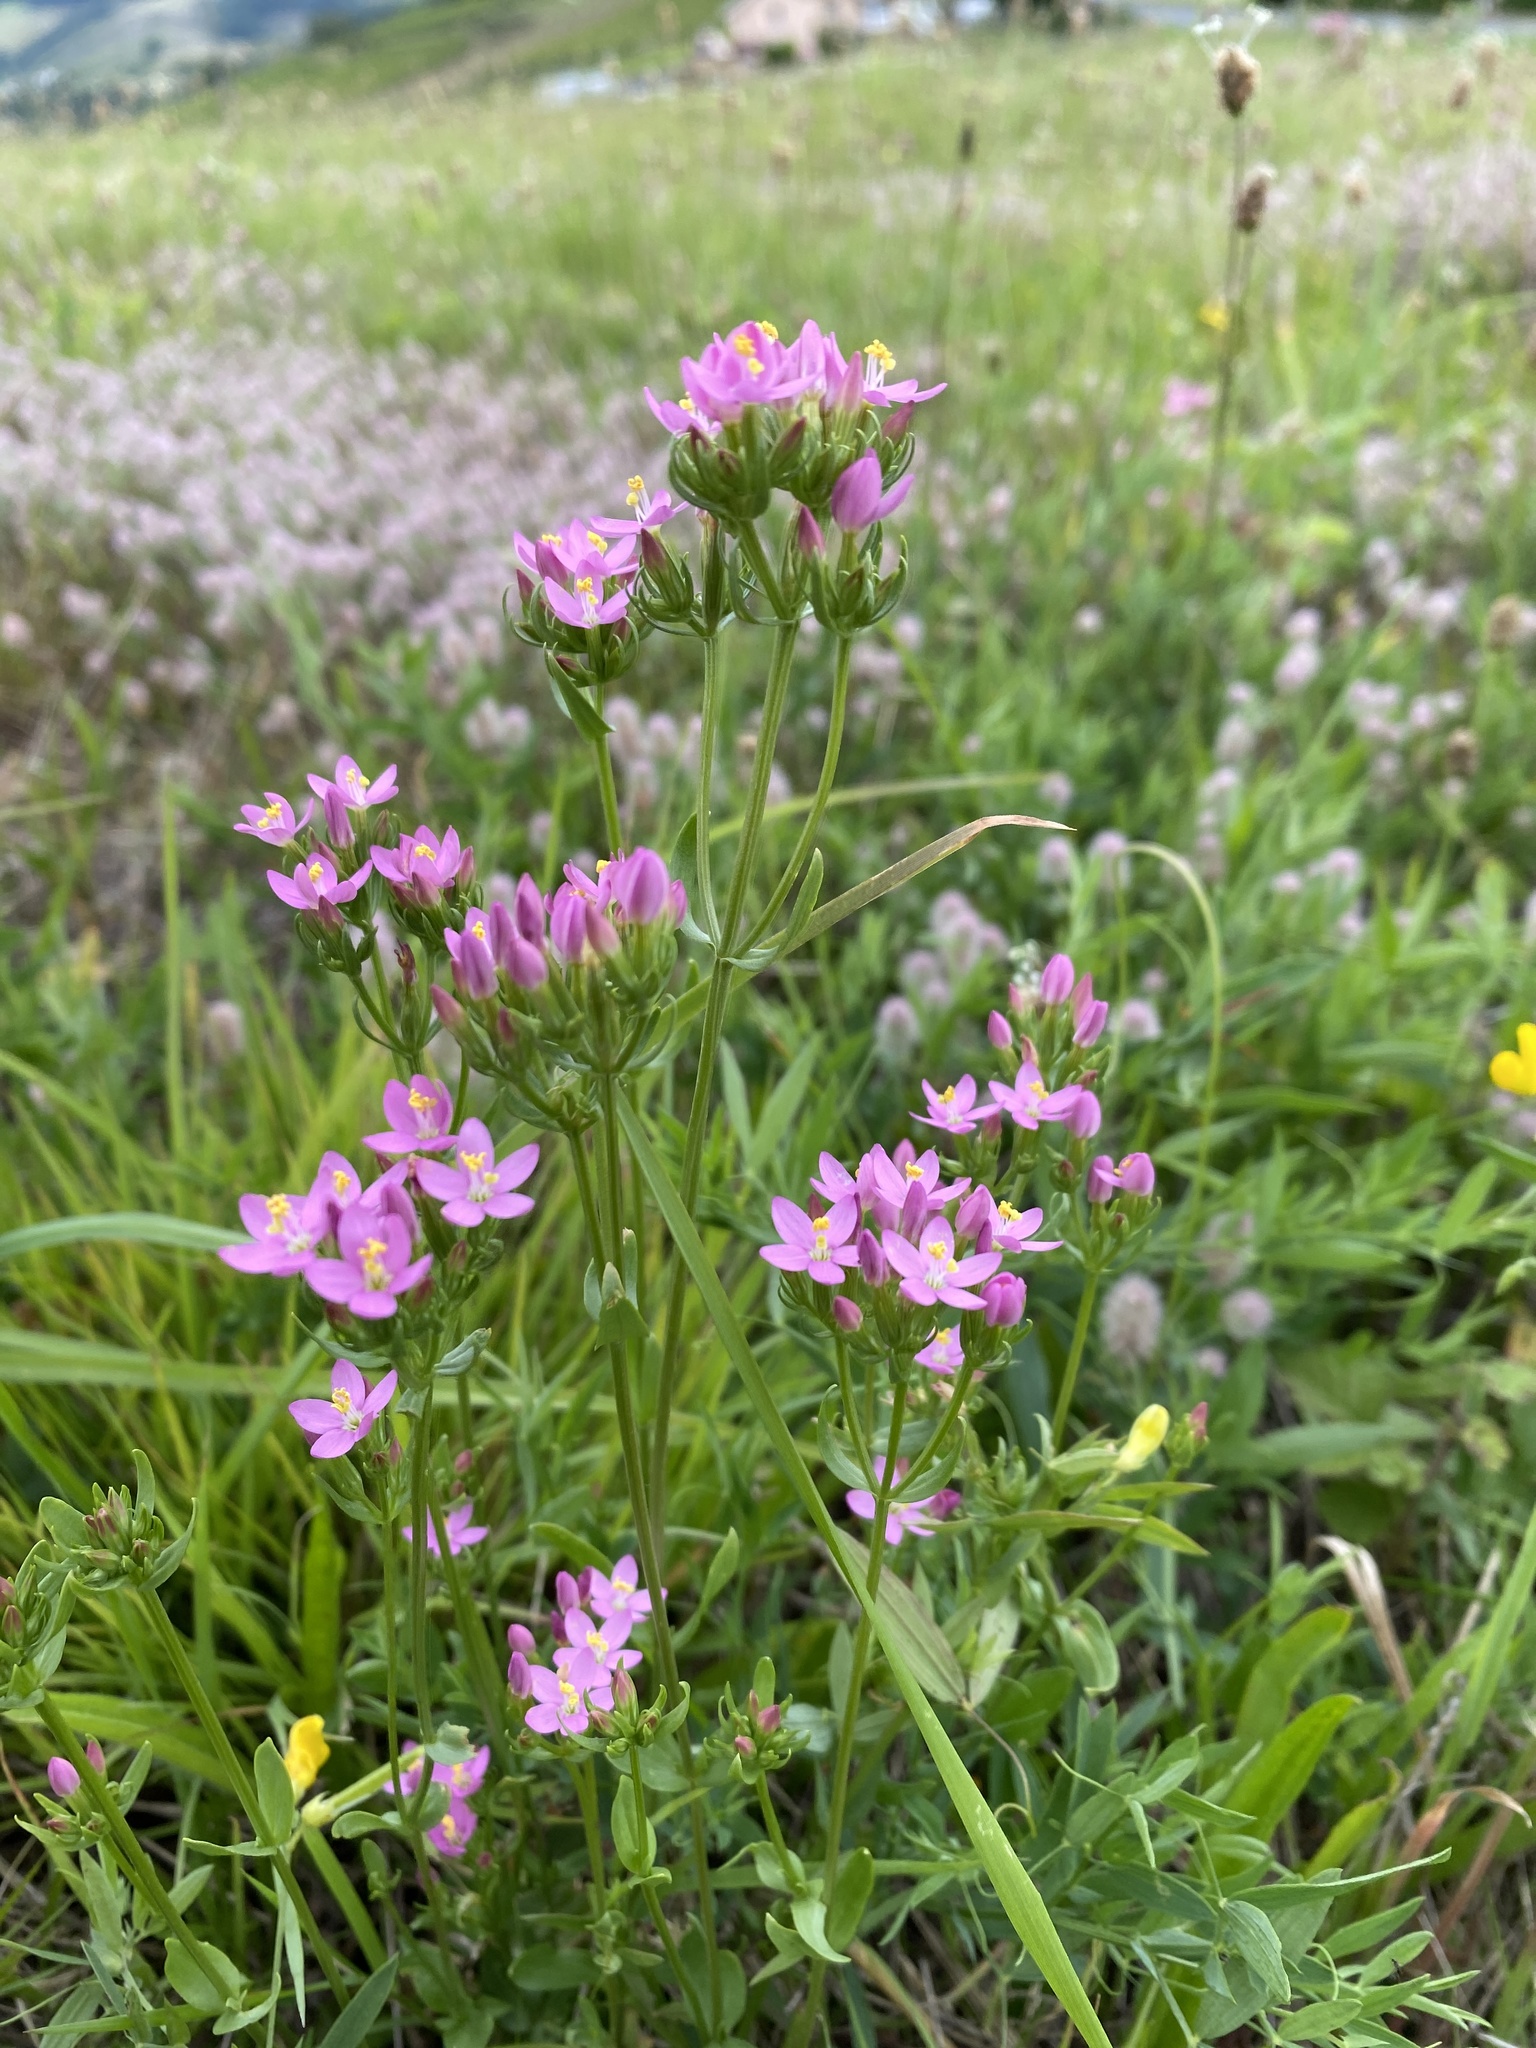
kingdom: Plantae
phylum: Tracheophyta
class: Magnoliopsida
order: Gentianales
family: Gentianaceae
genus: Centaurium
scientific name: Centaurium erythraea
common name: Common centaury
